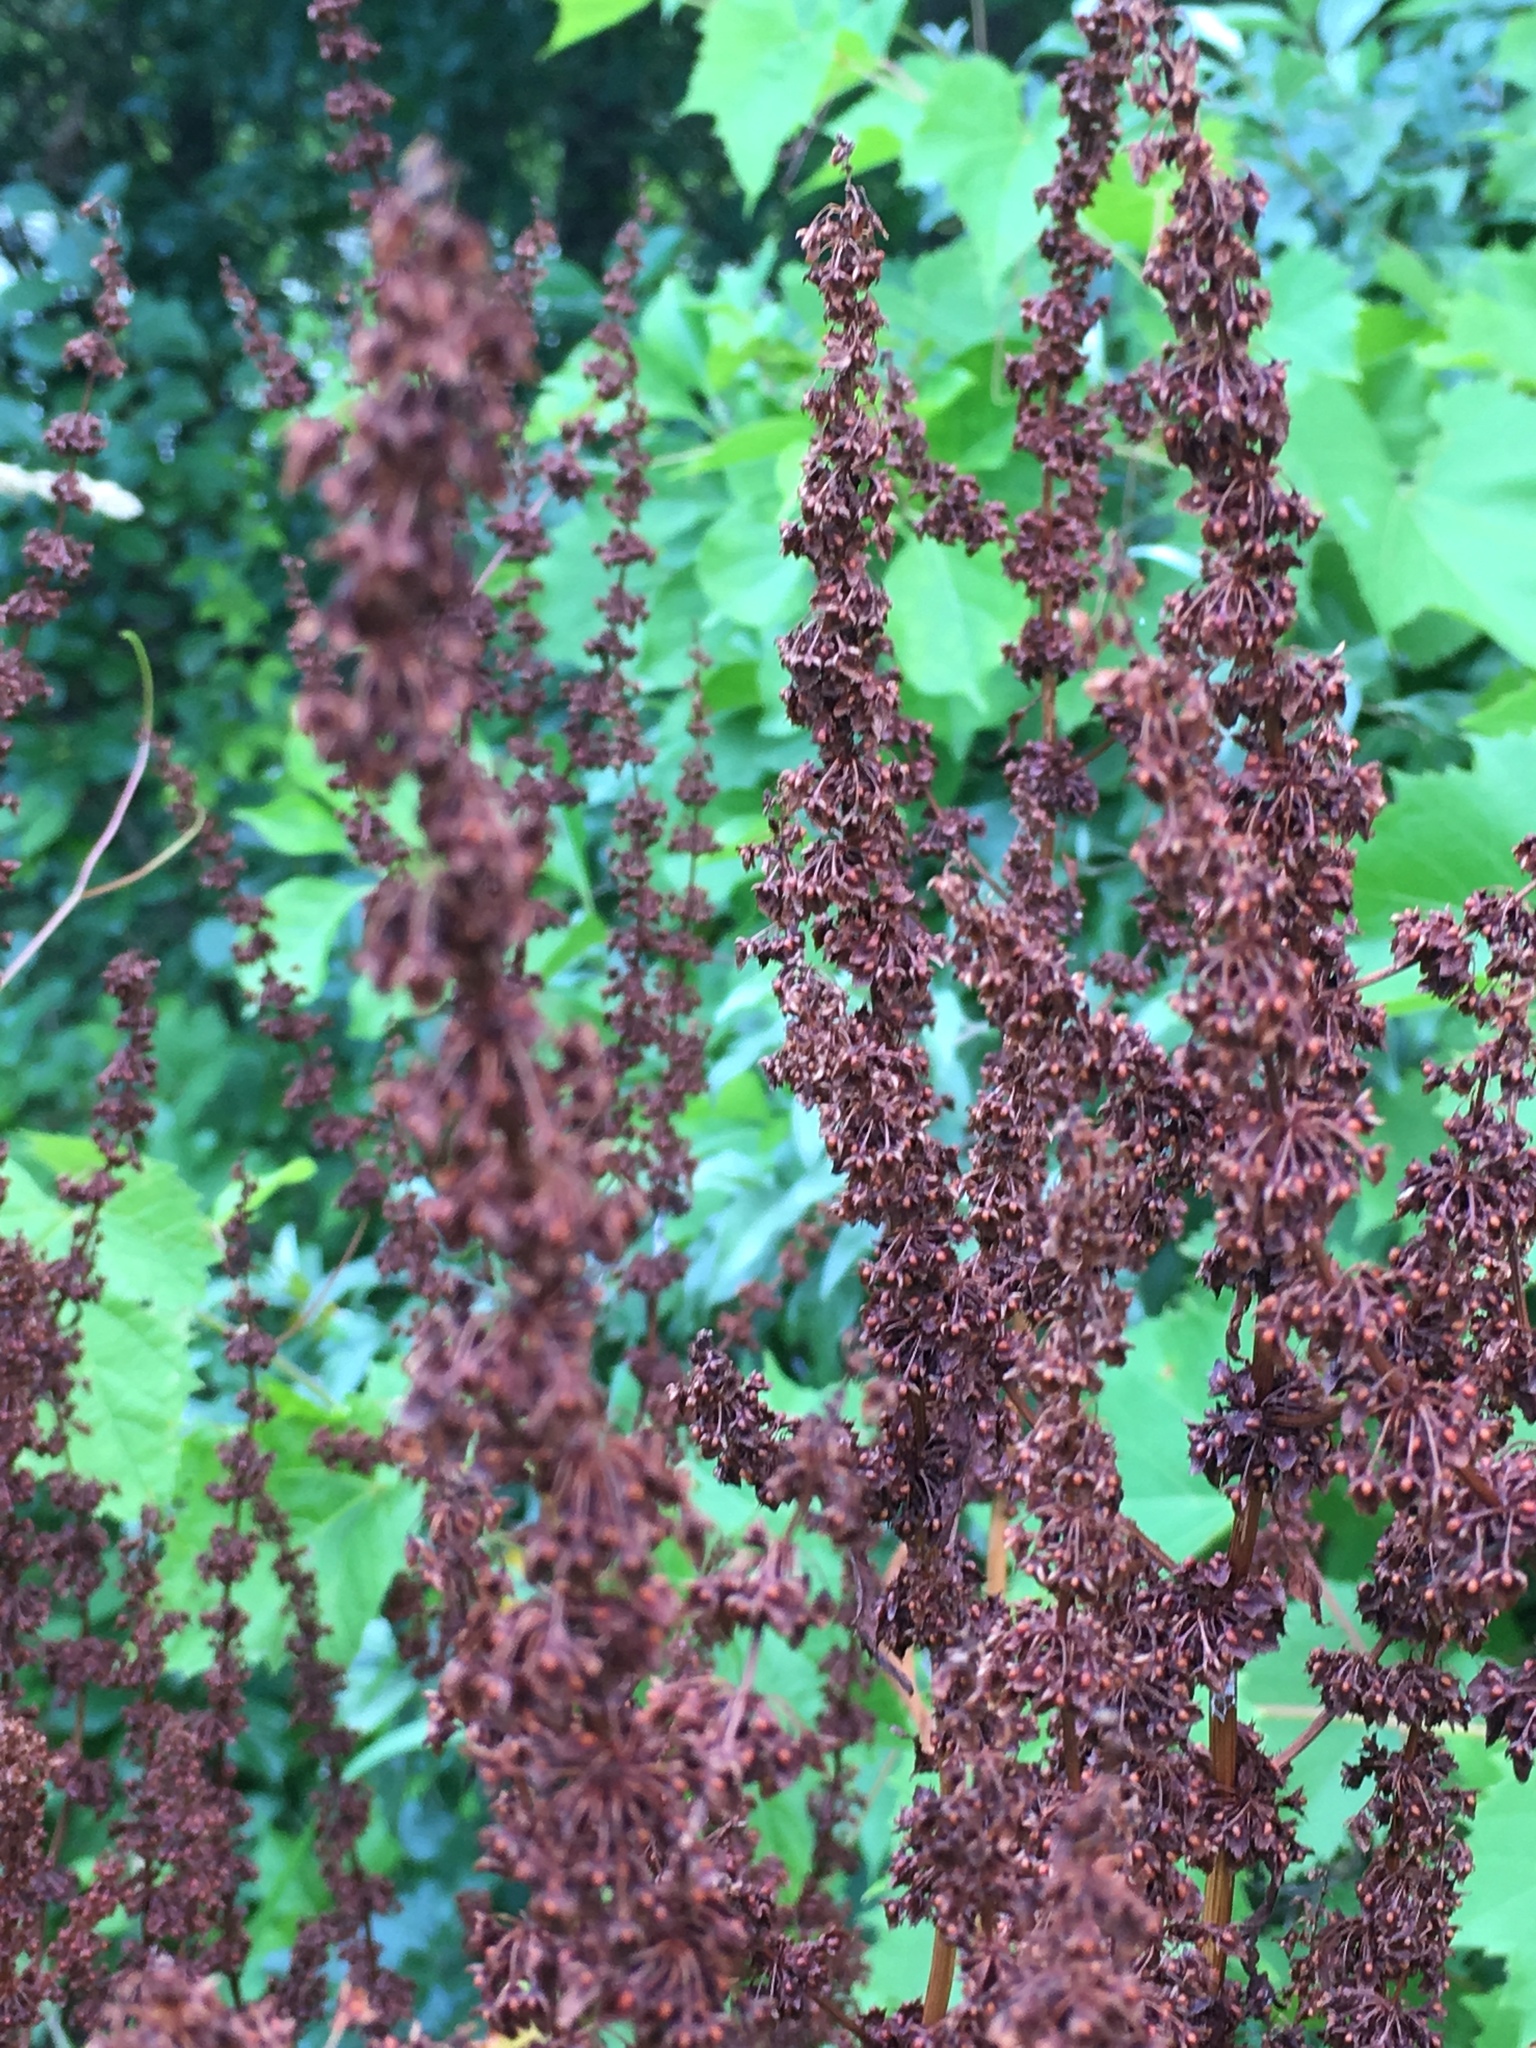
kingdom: Plantae
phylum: Tracheophyta
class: Magnoliopsida
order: Caryophyllales
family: Polygonaceae
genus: Rumex
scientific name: Rumex obtusifolius
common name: Bitter dock
